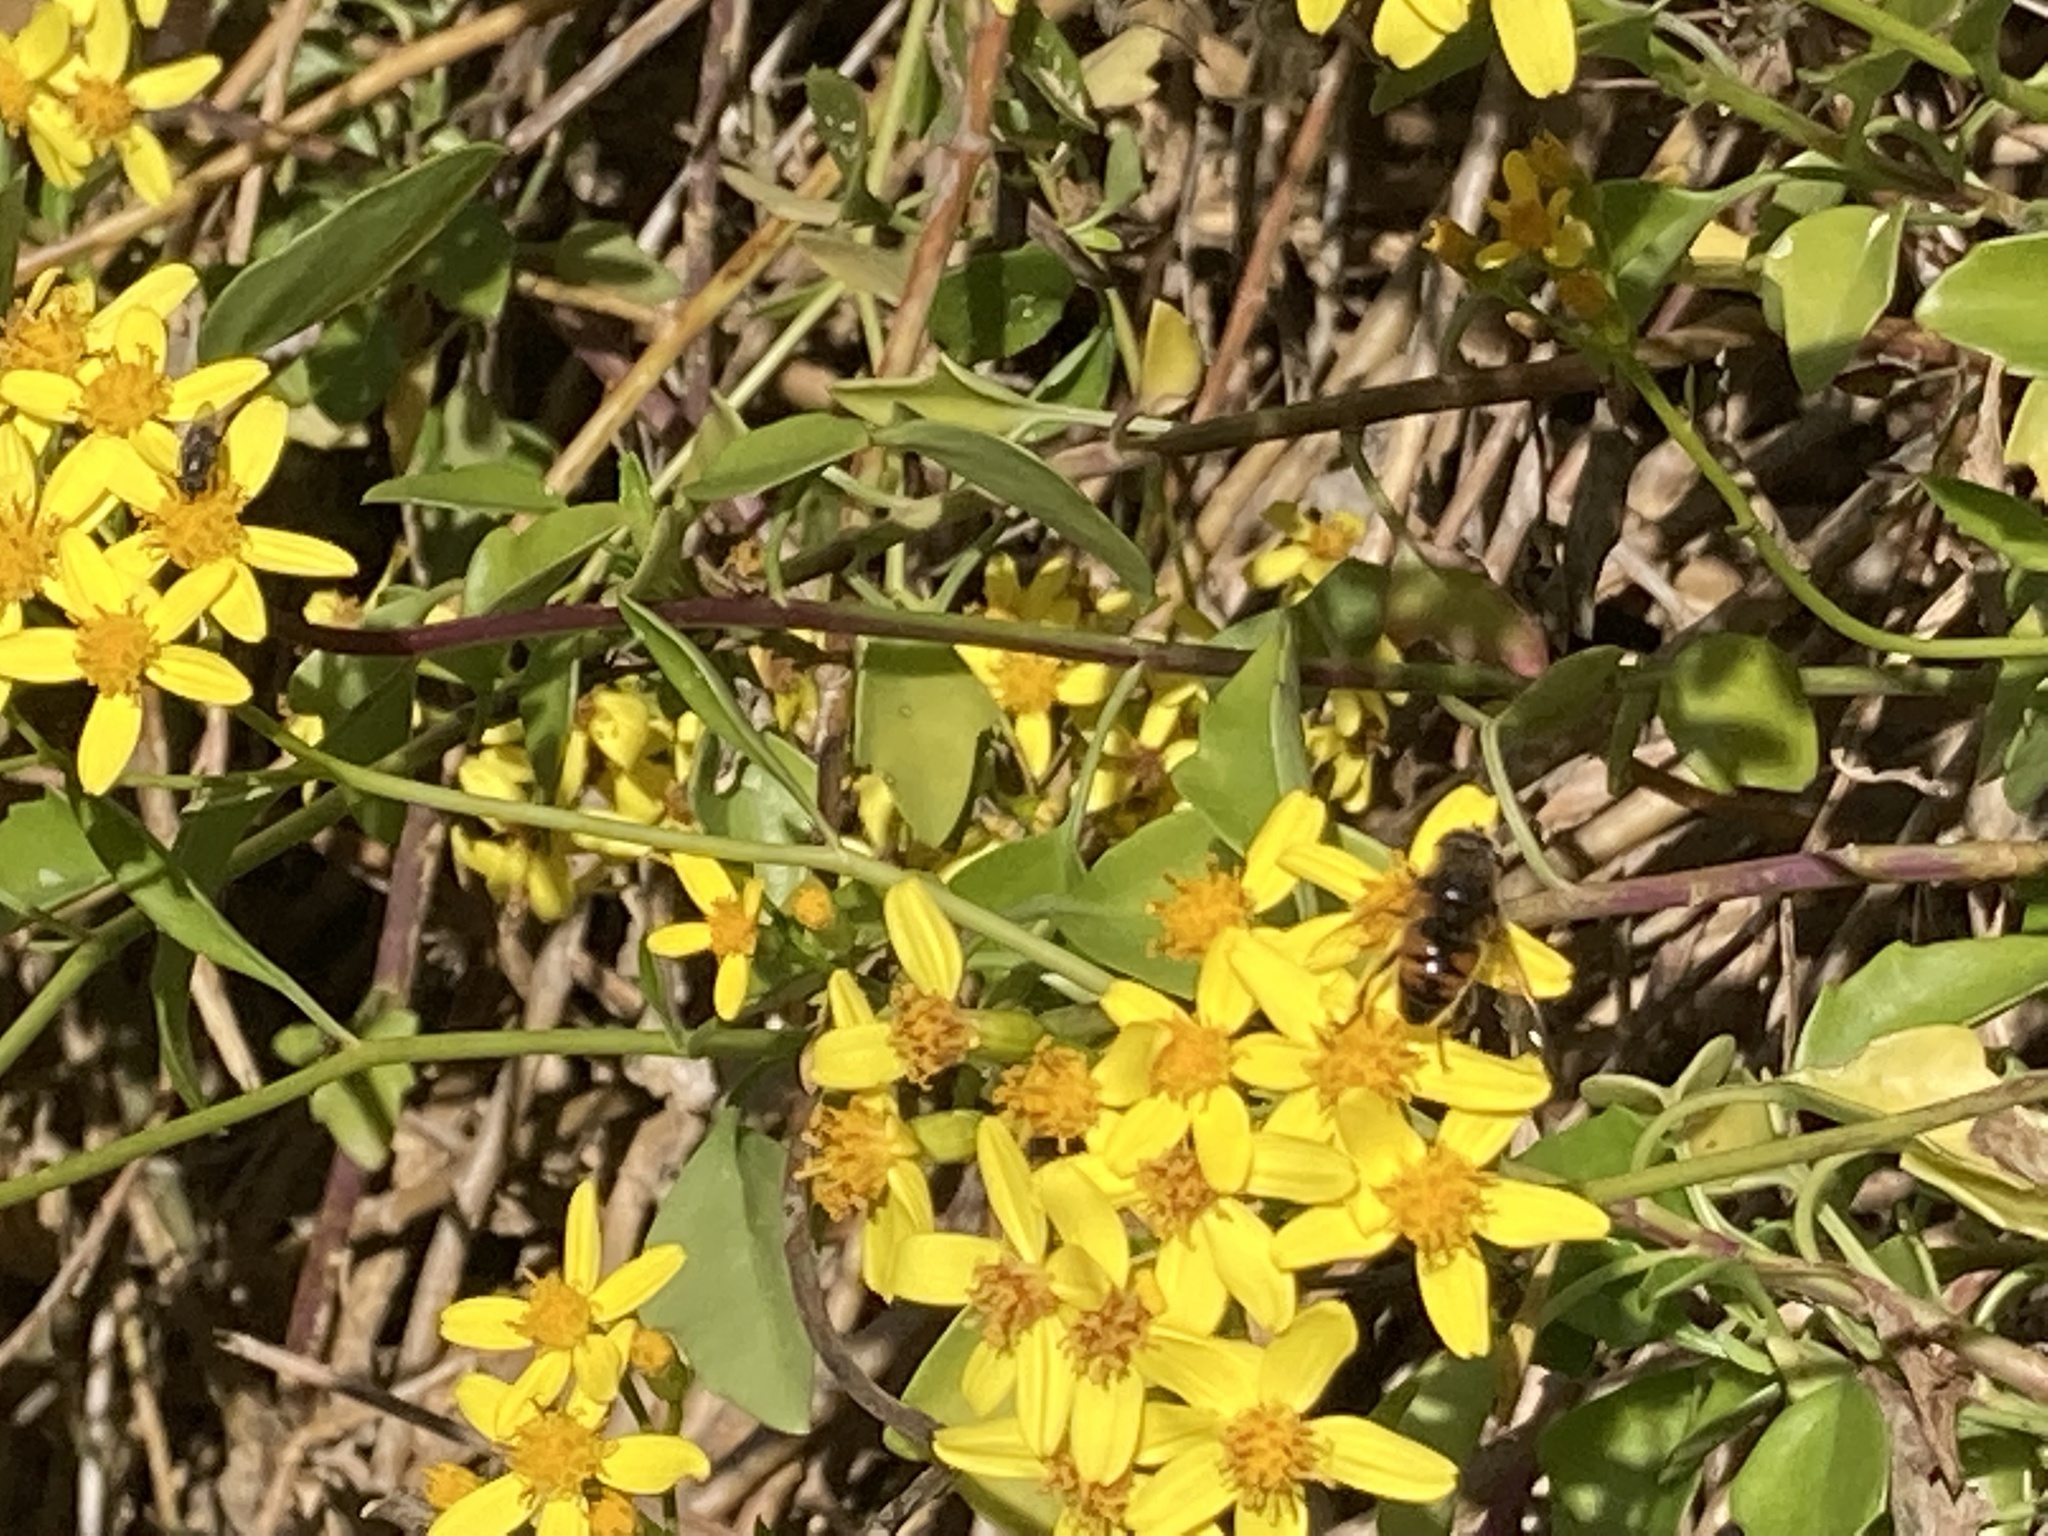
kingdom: Plantae
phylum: Tracheophyta
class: Magnoliopsida
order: Asterales
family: Asteraceae
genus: Senecio
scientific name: Senecio angulatus
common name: Climbing groundsel
